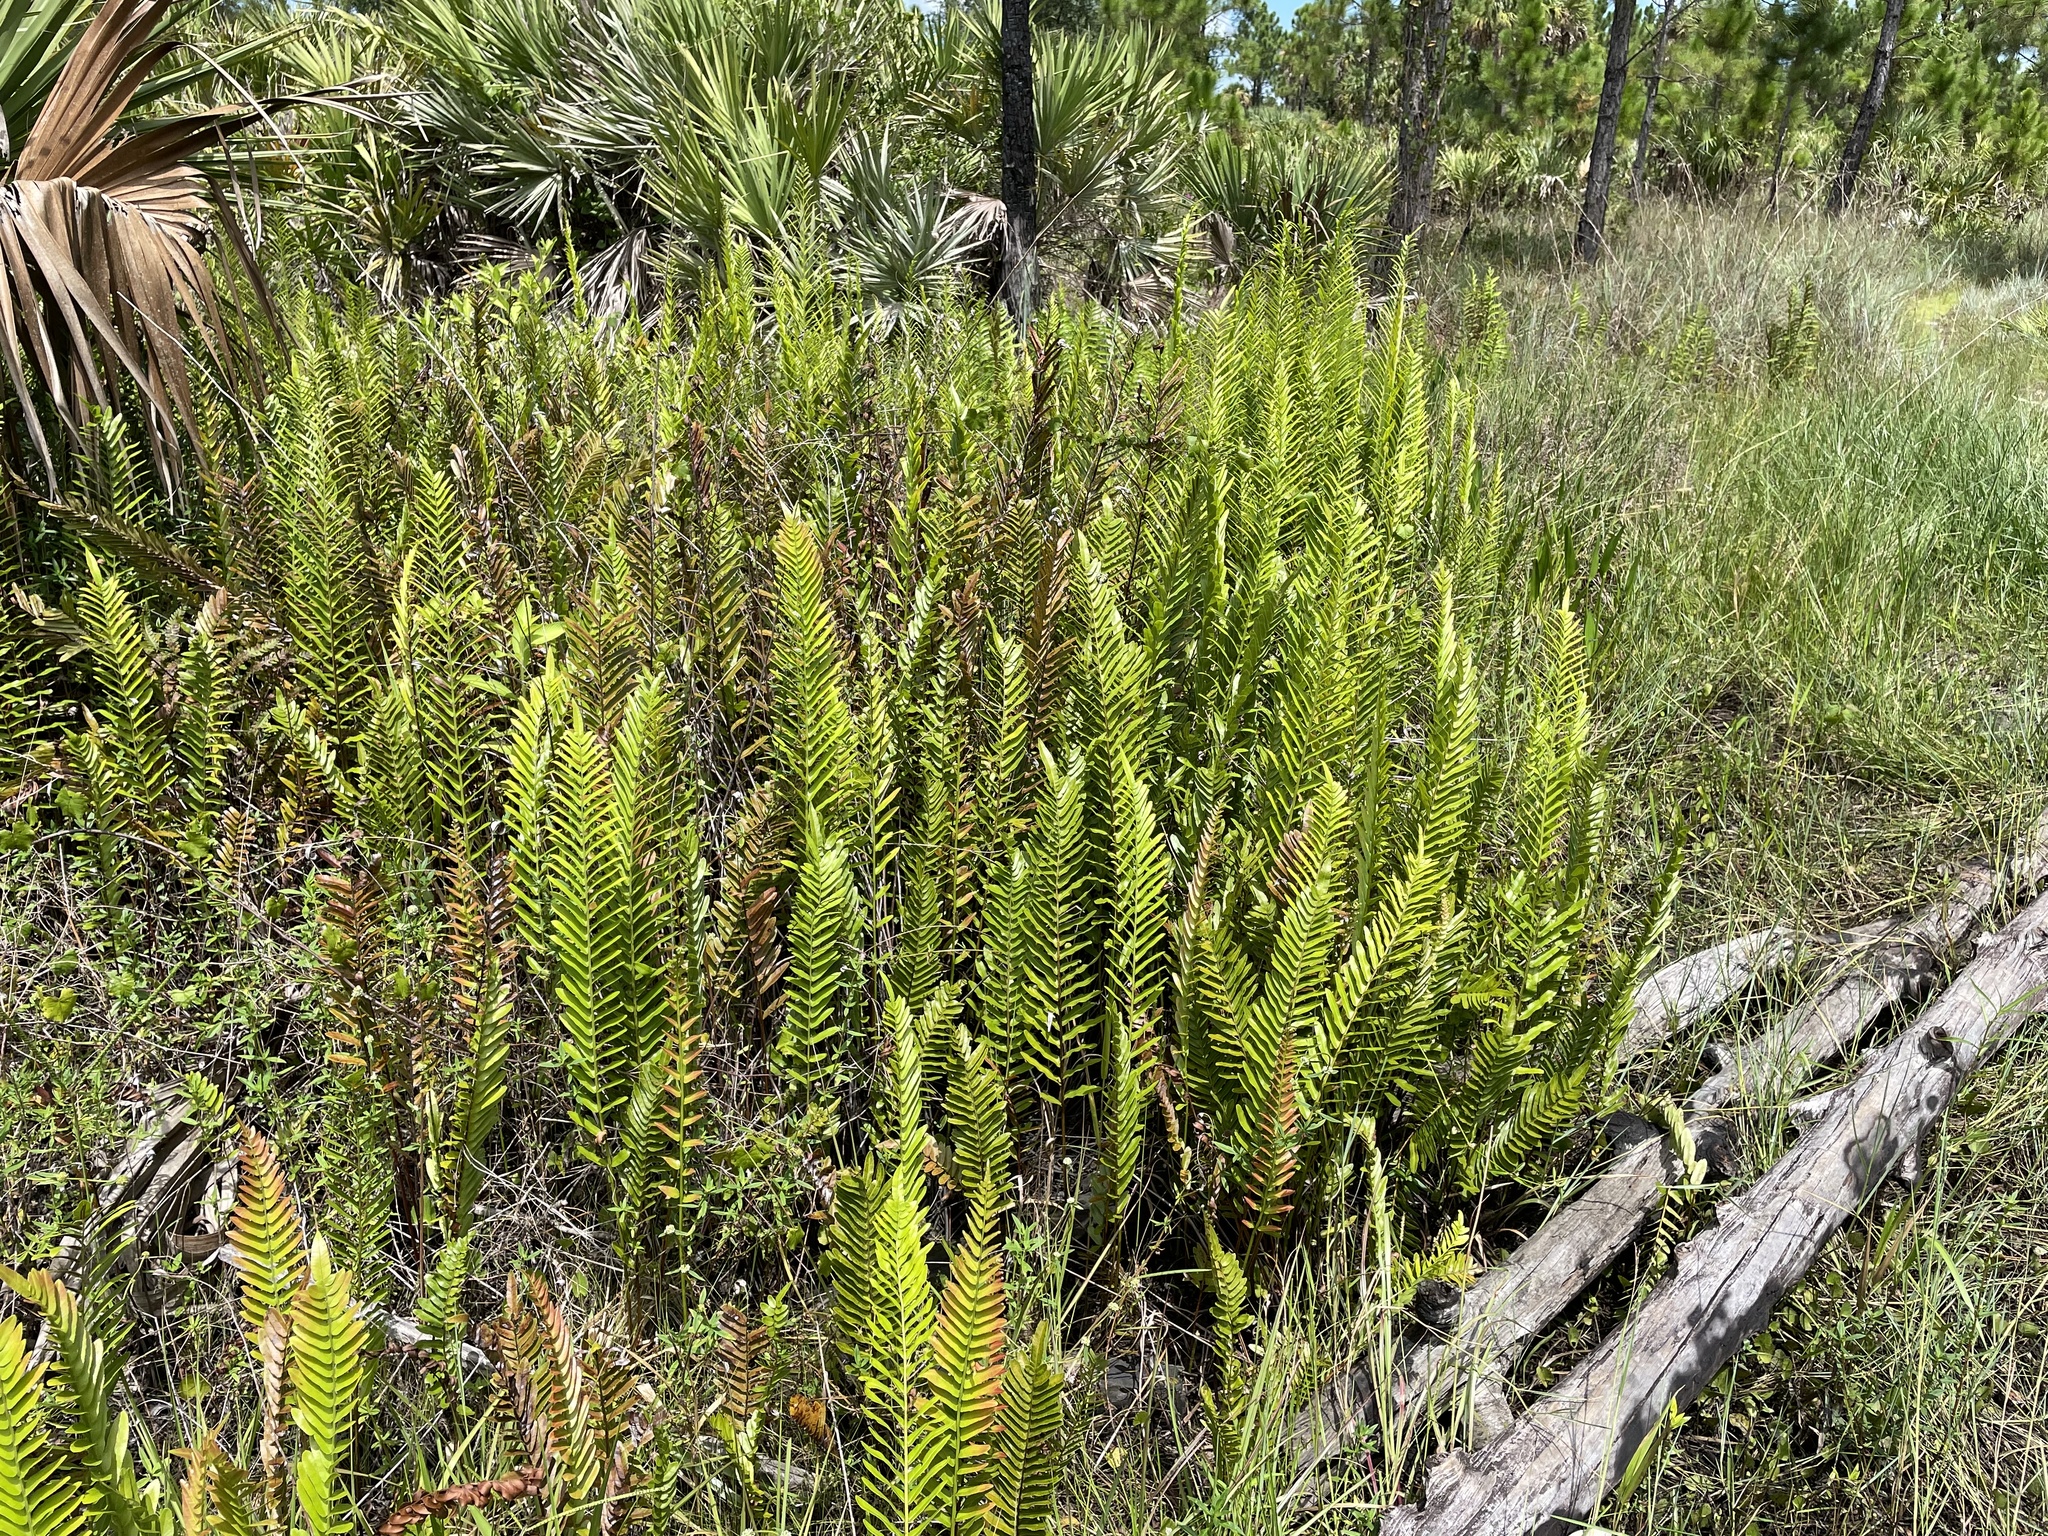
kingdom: Plantae
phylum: Tracheophyta
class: Polypodiopsida
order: Polypodiales
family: Blechnaceae
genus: Telmatoblechnum
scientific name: Telmatoblechnum serrulatum
